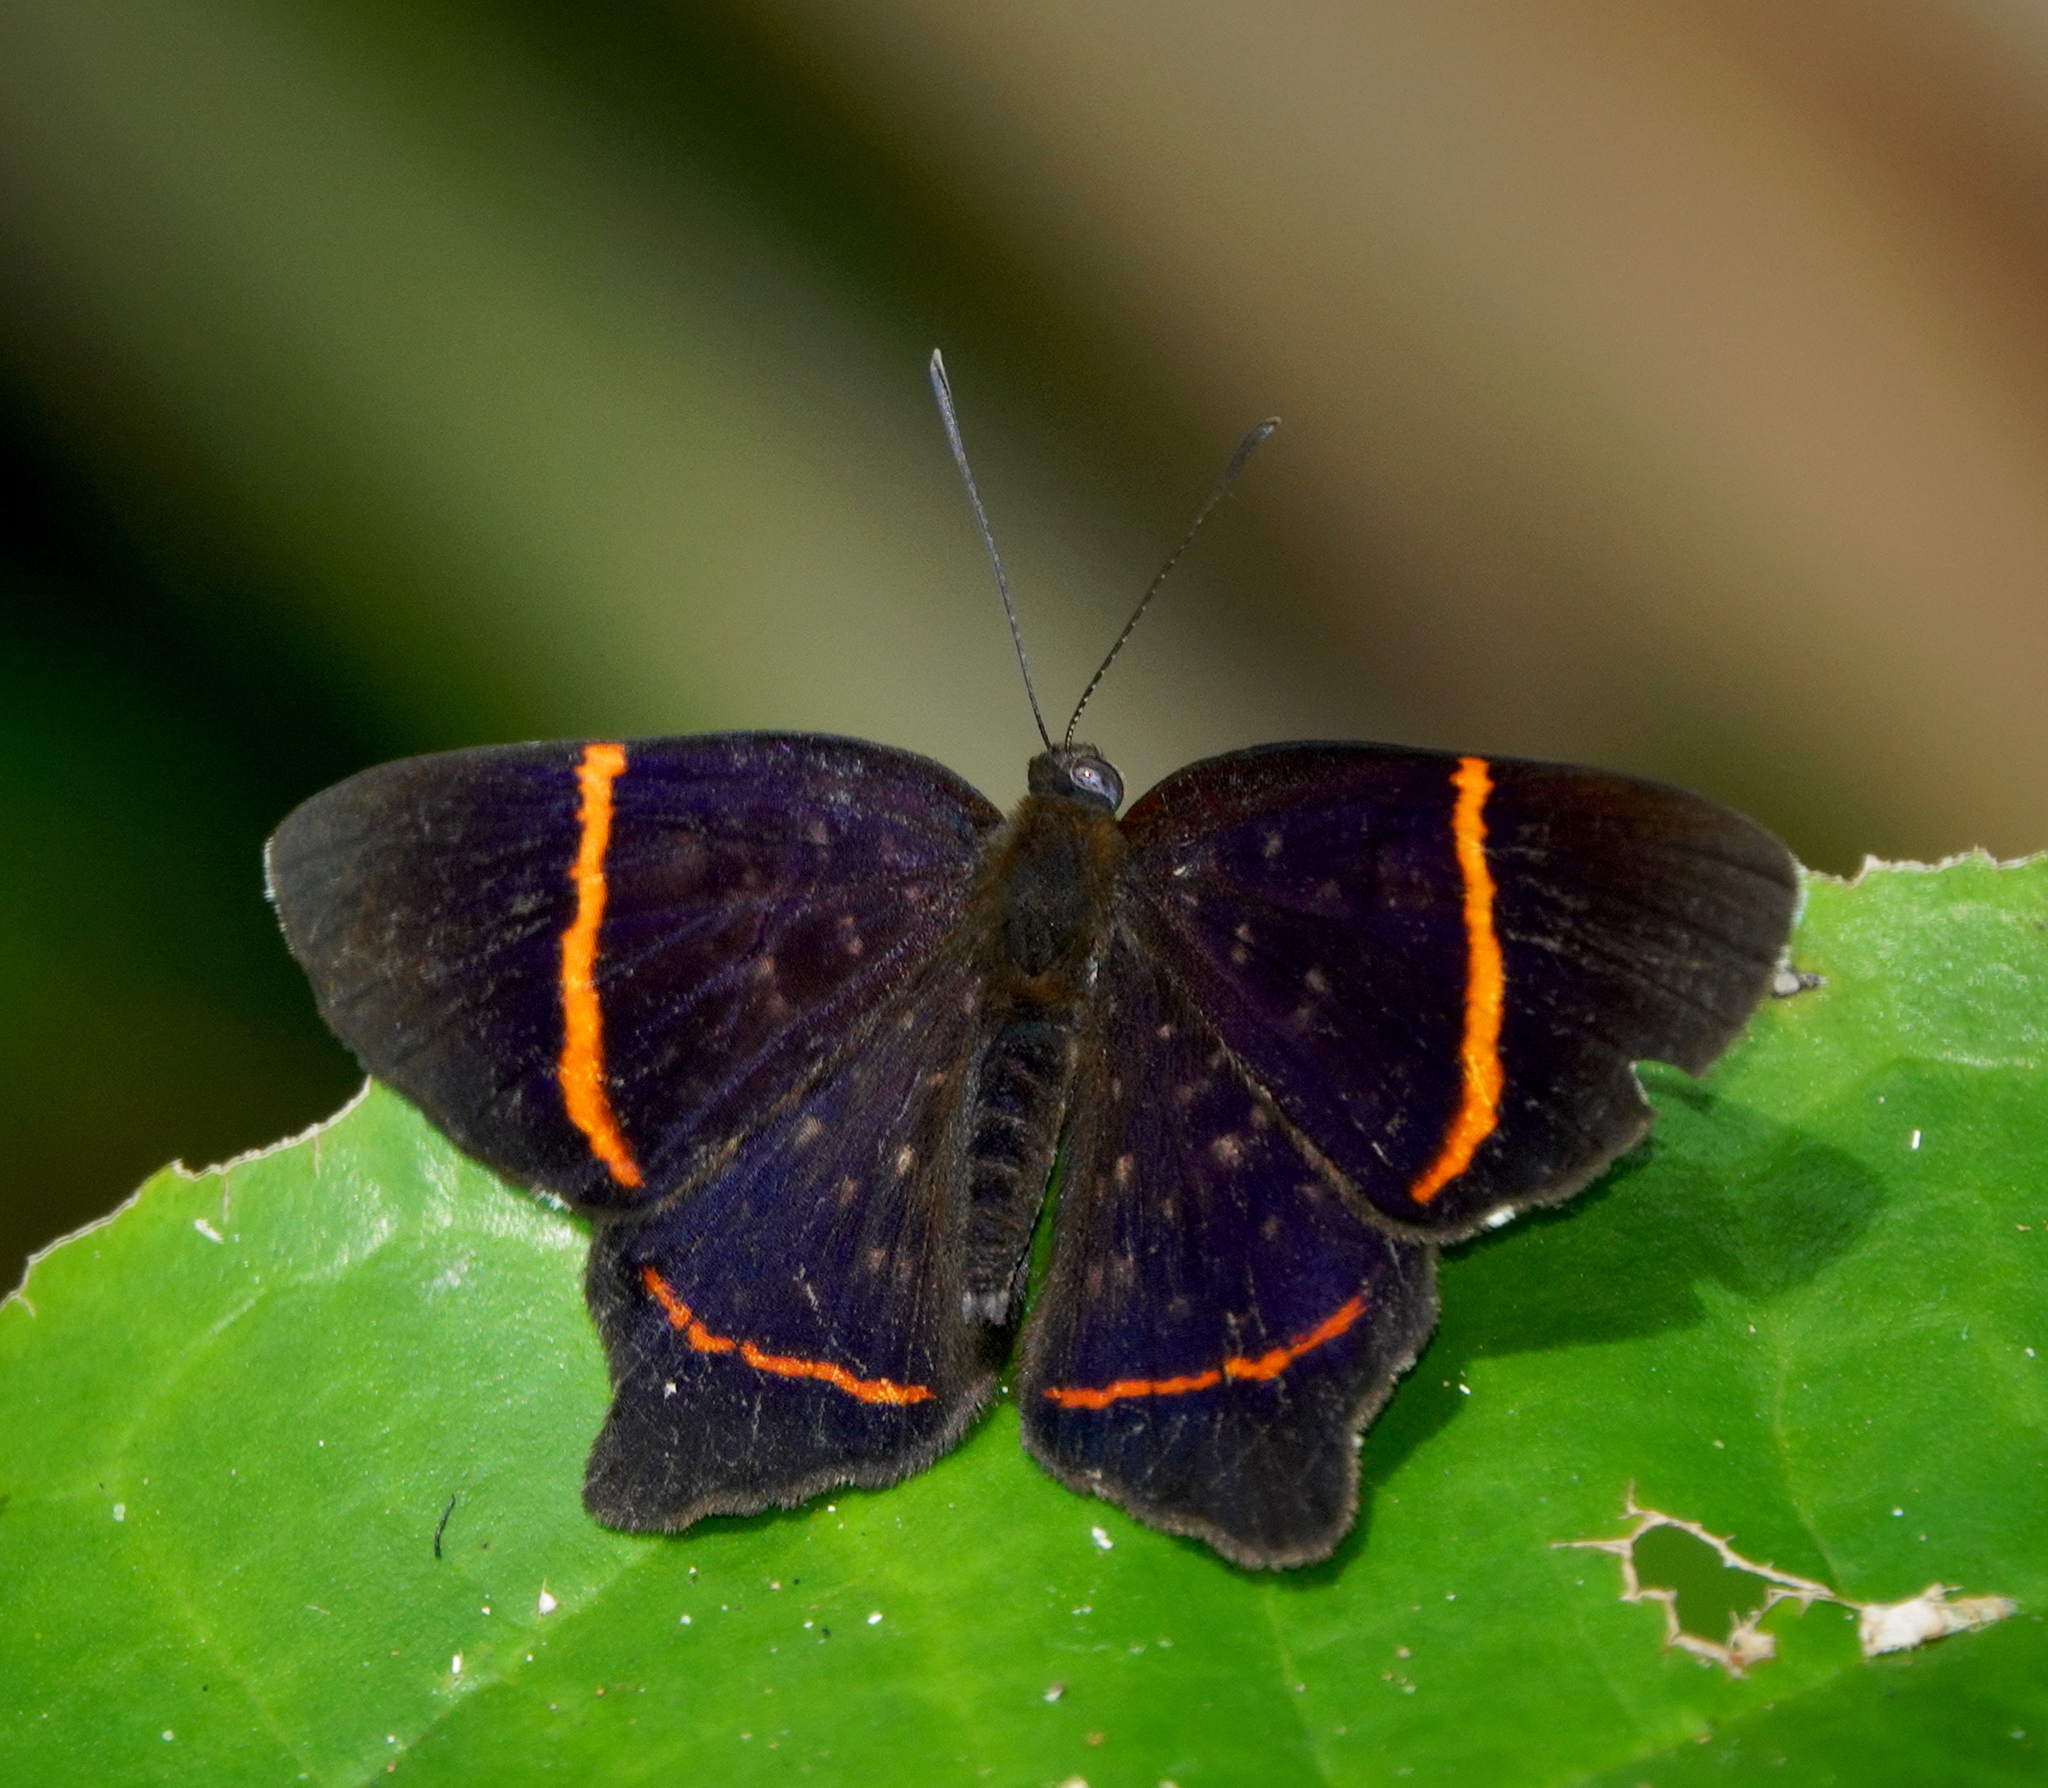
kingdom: Animalia
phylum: Arthropoda
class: Insecta
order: Lepidoptera
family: Riodinidae
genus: Riodina
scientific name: Riodina lysippus
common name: Lysippus metalmark
